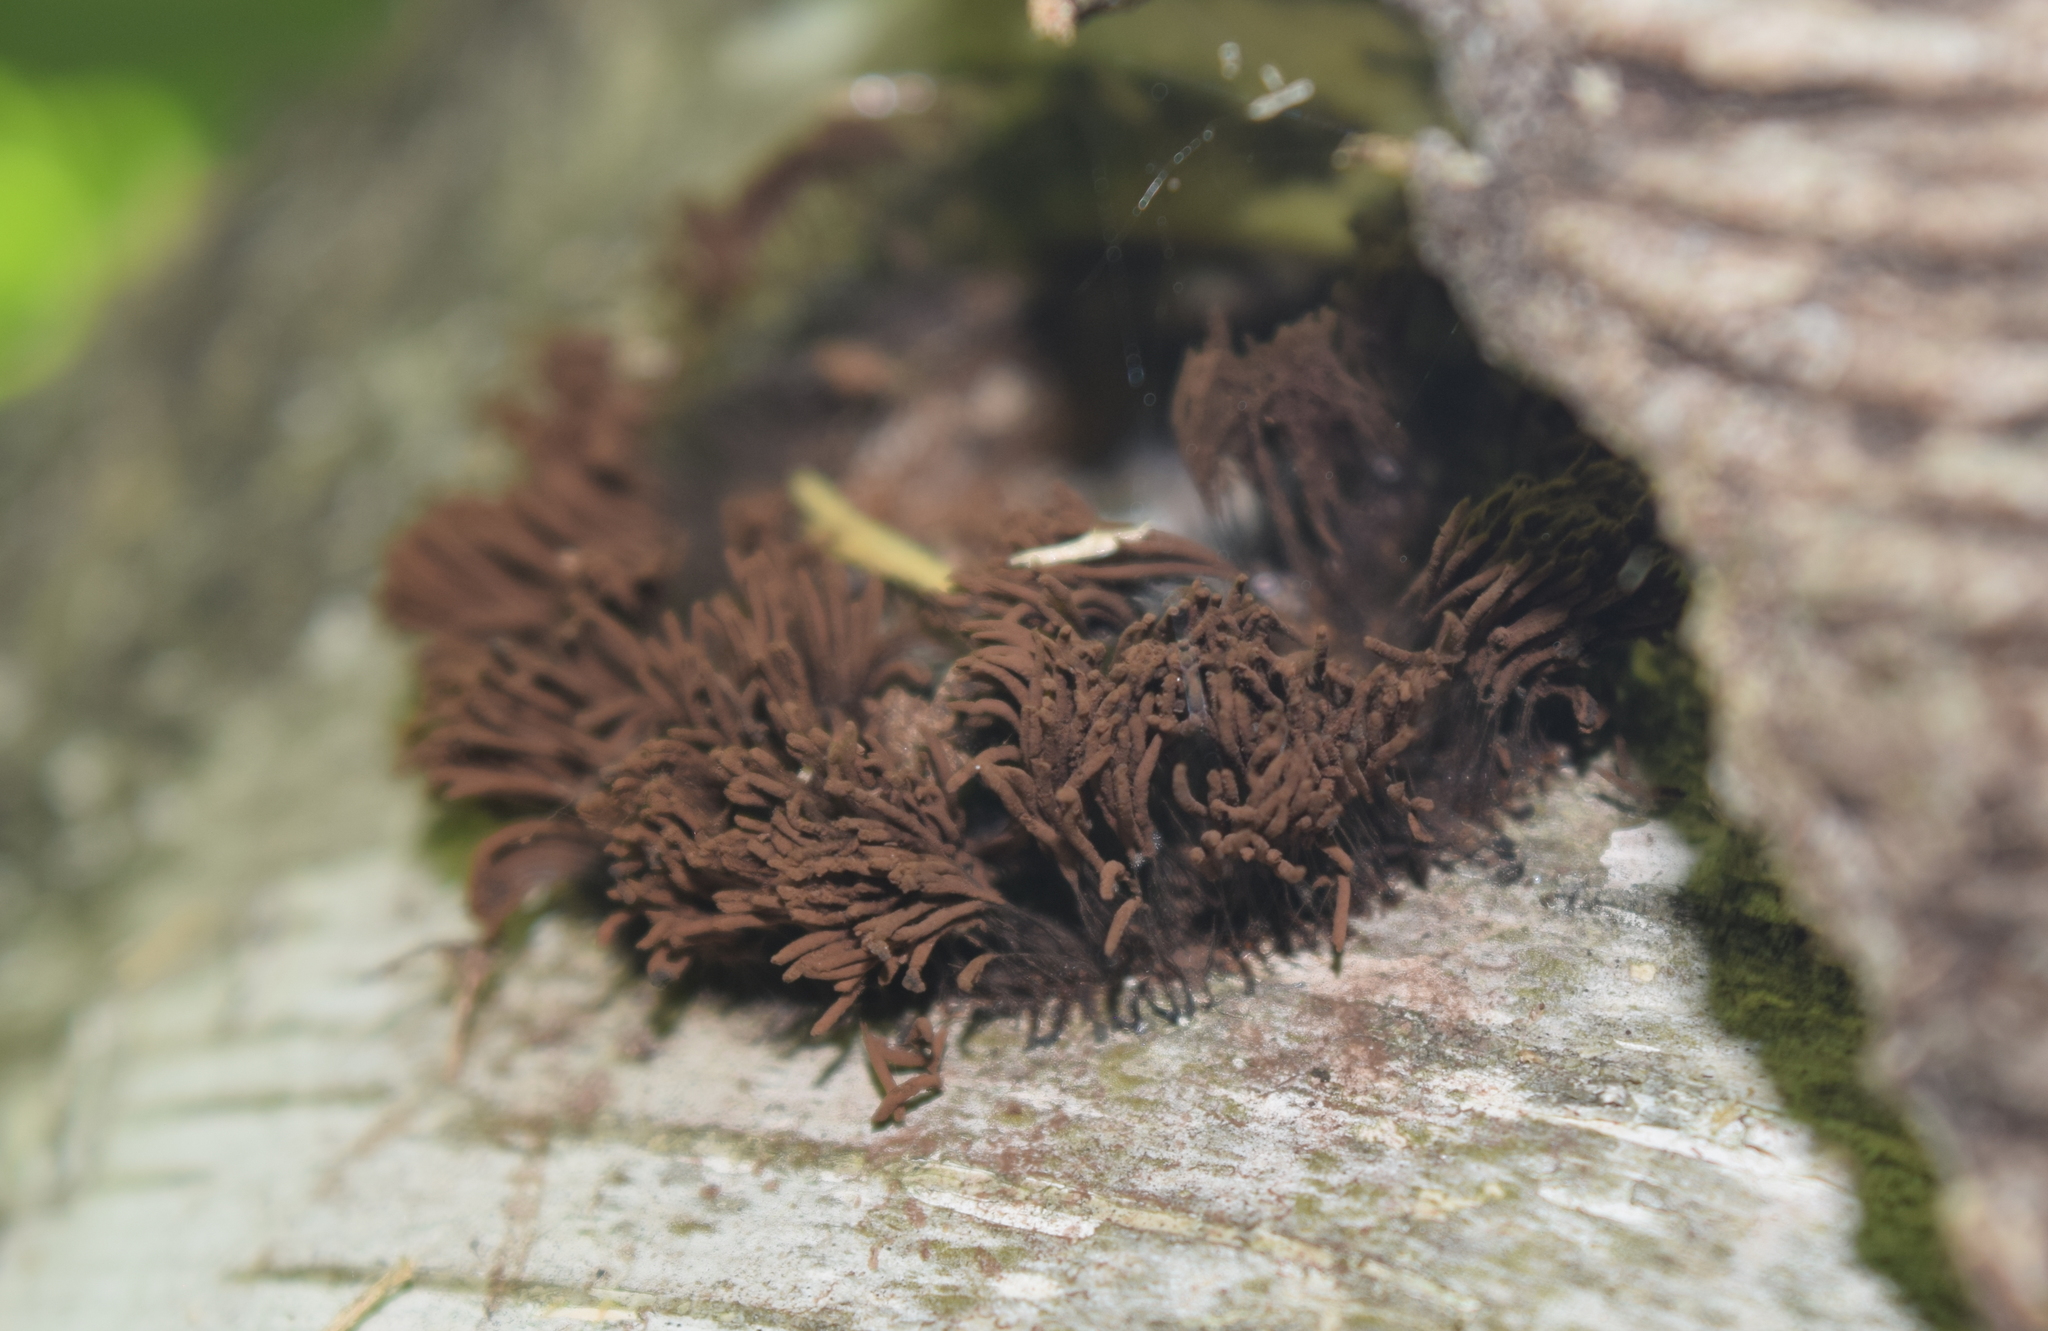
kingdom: Protozoa
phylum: Mycetozoa
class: Myxomycetes
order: Stemonitidales
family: Stemonitidaceae
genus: Stemonitis
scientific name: Stemonitis splendens
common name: Chocolate tube slime
